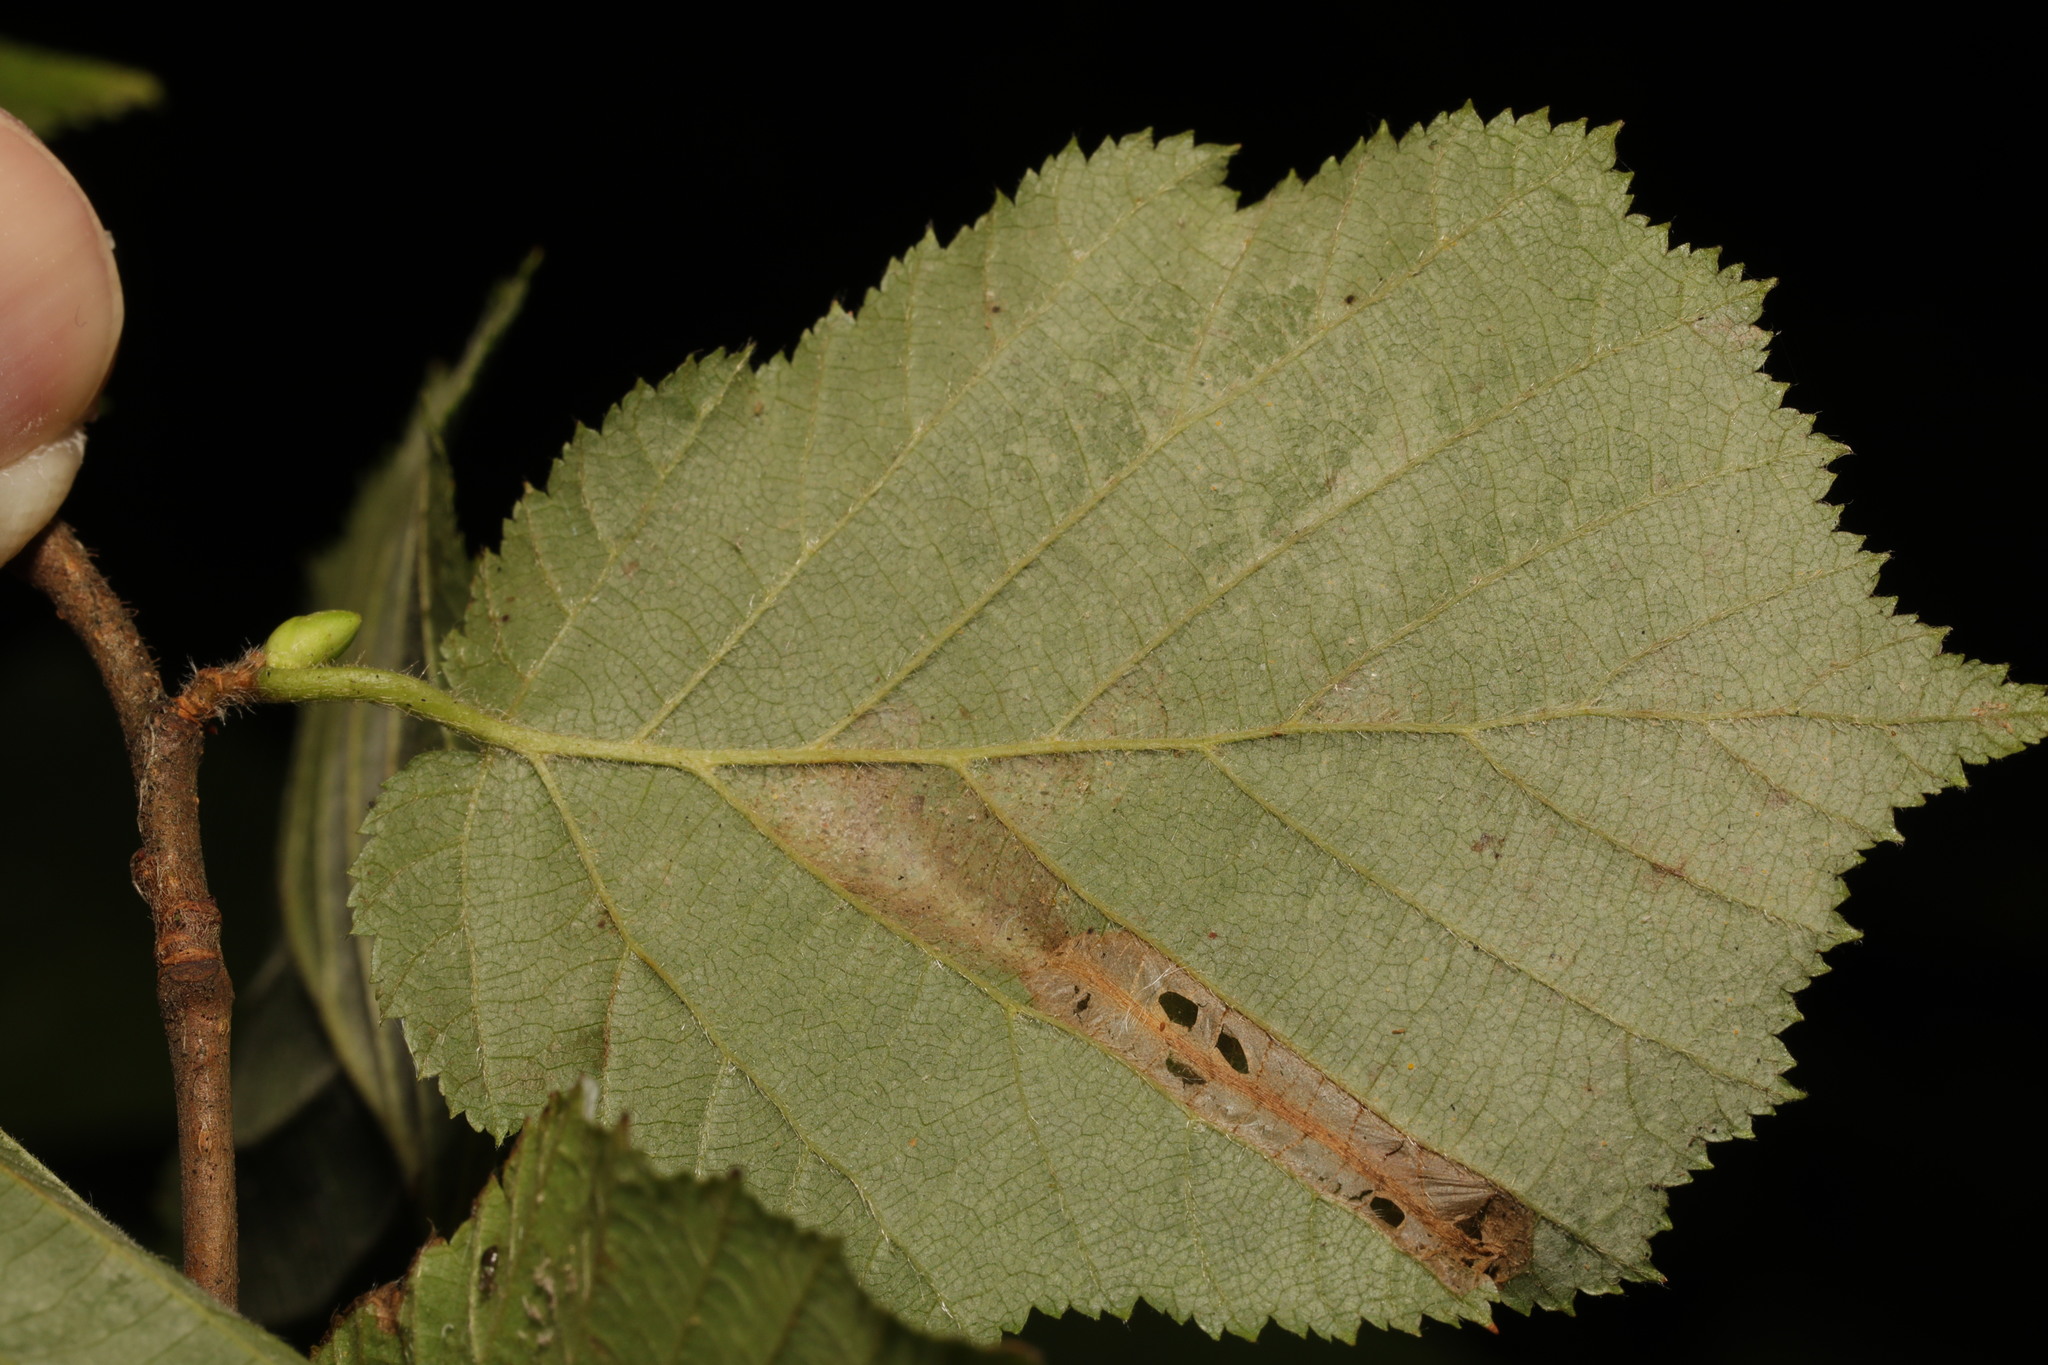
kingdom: Animalia
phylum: Arthropoda
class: Insecta
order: Lepidoptera
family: Gracillariidae
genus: Phyllonorycter
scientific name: Phyllonorycter nicellii
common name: Red hazel midget
